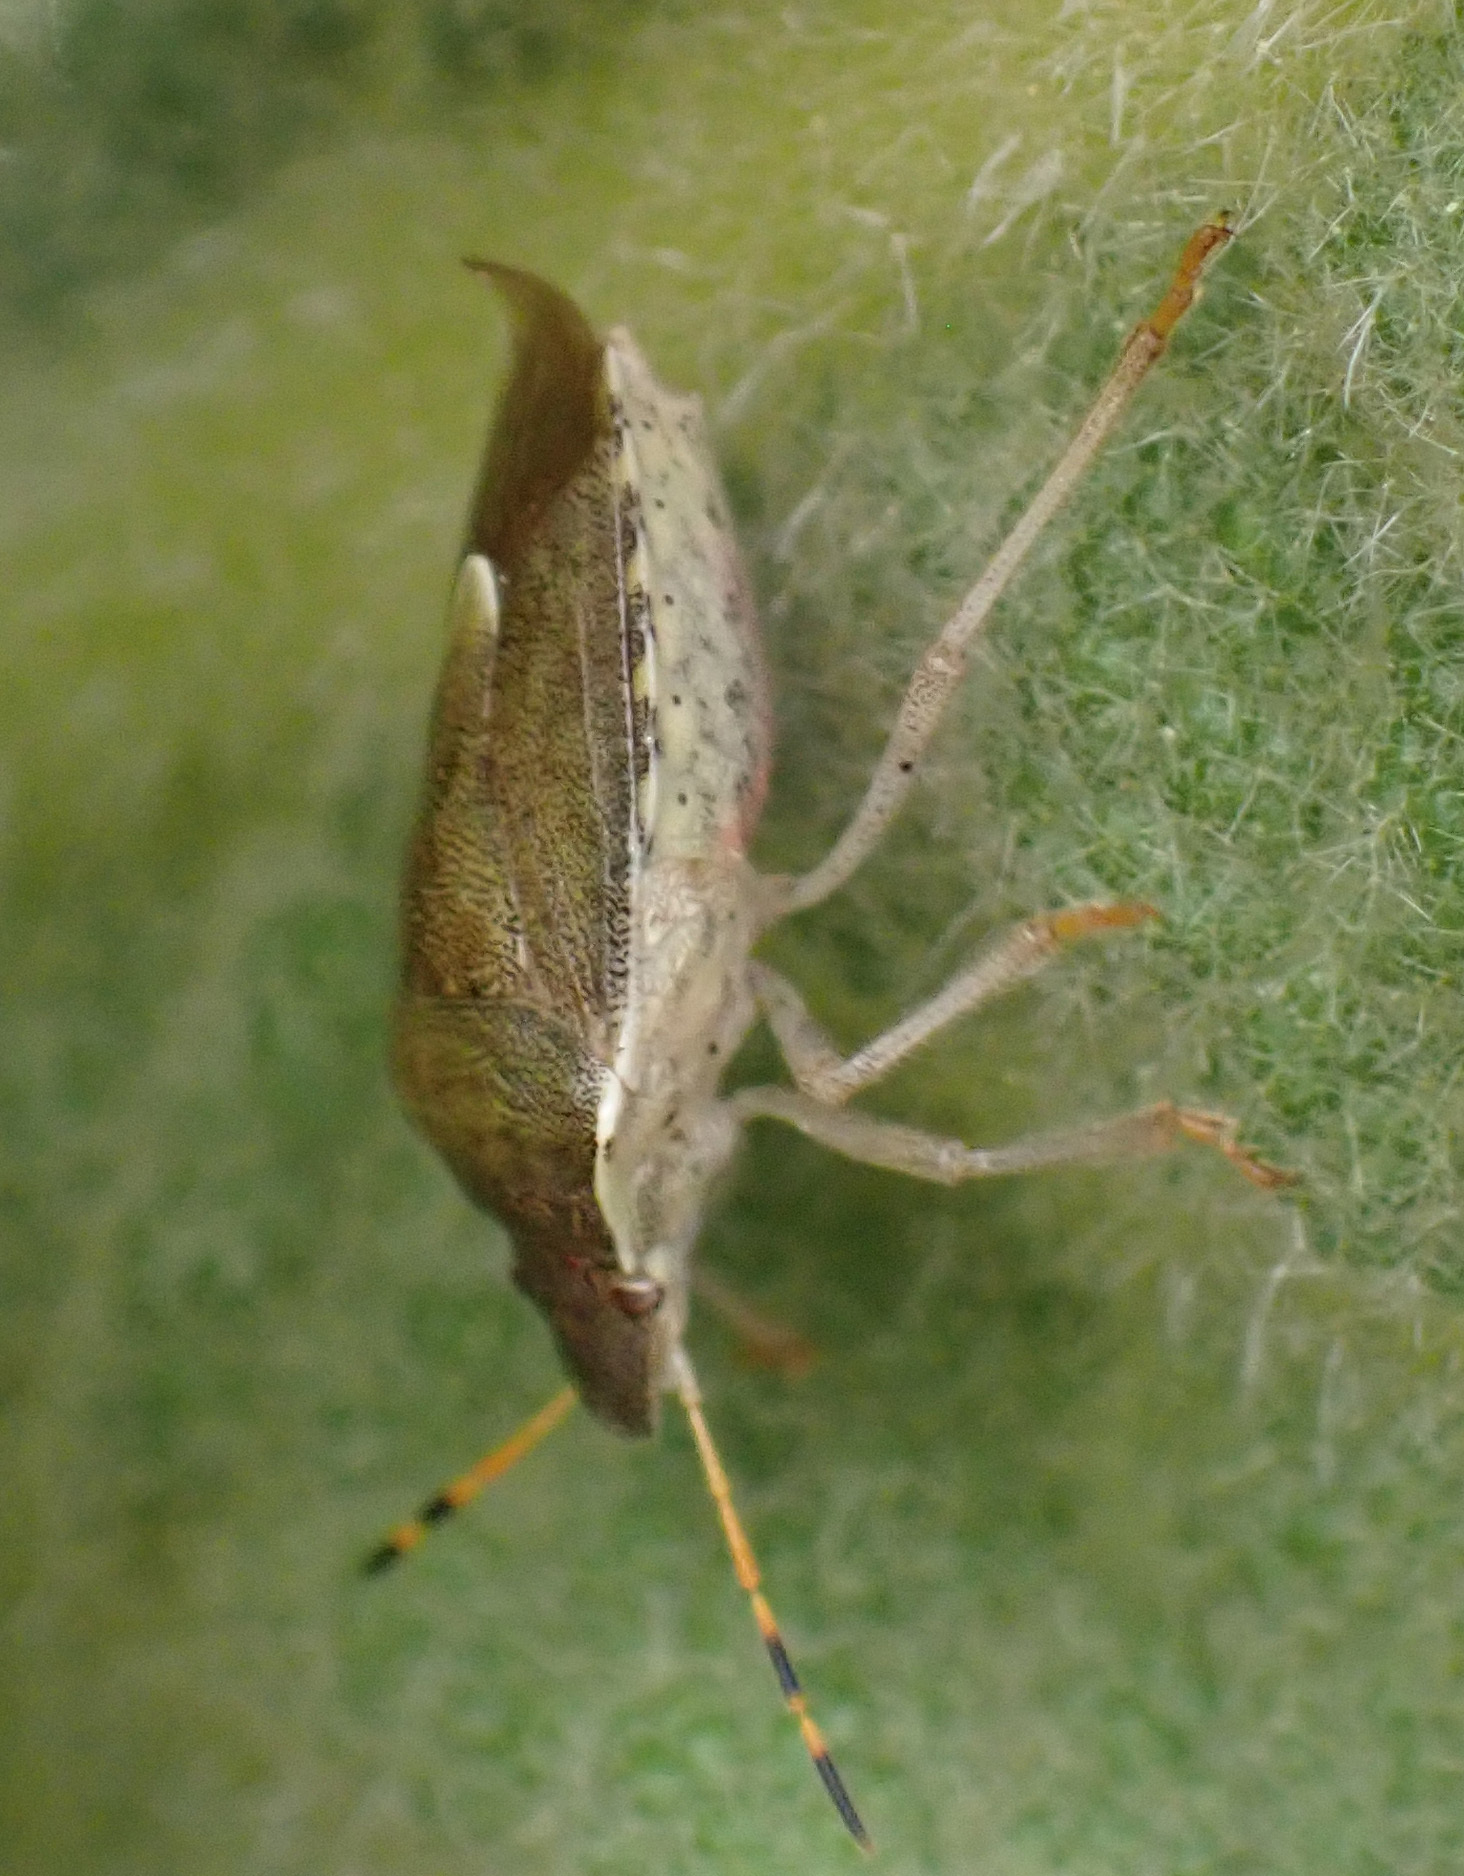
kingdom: Animalia
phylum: Arthropoda
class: Insecta
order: Hemiptera
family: Pentatomidae
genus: Holcostethus
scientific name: Holcostethus strictus
